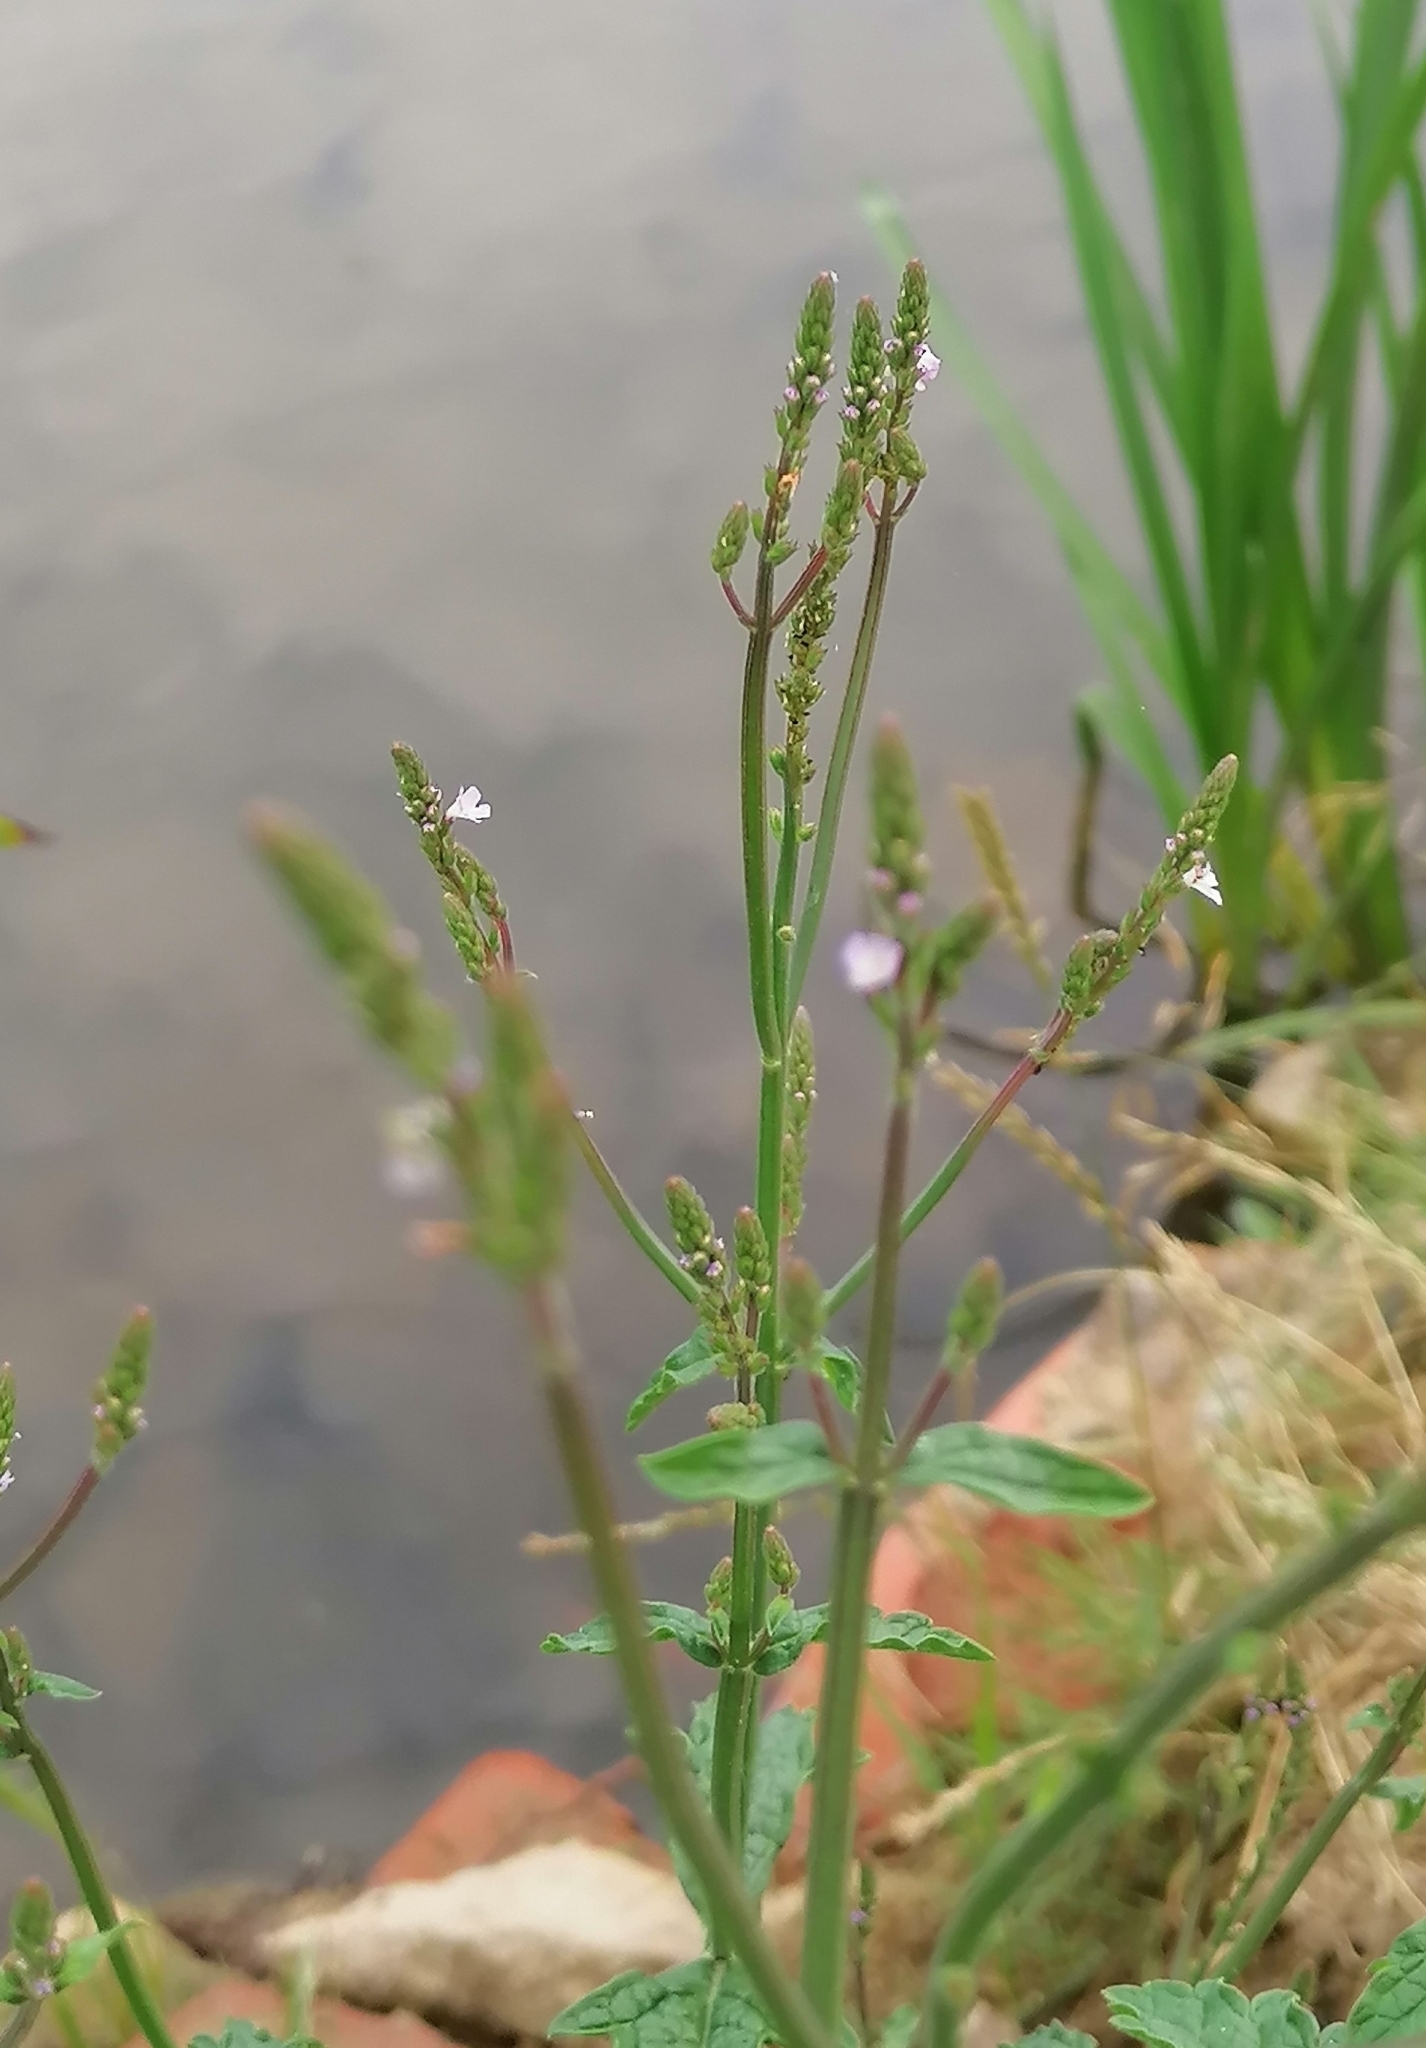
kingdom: Plantae
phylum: Tracheophyta
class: Magnoliopsida
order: Lamiales
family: Verbenaceae
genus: Verbena
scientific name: Verbena officinalis
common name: Vervain
